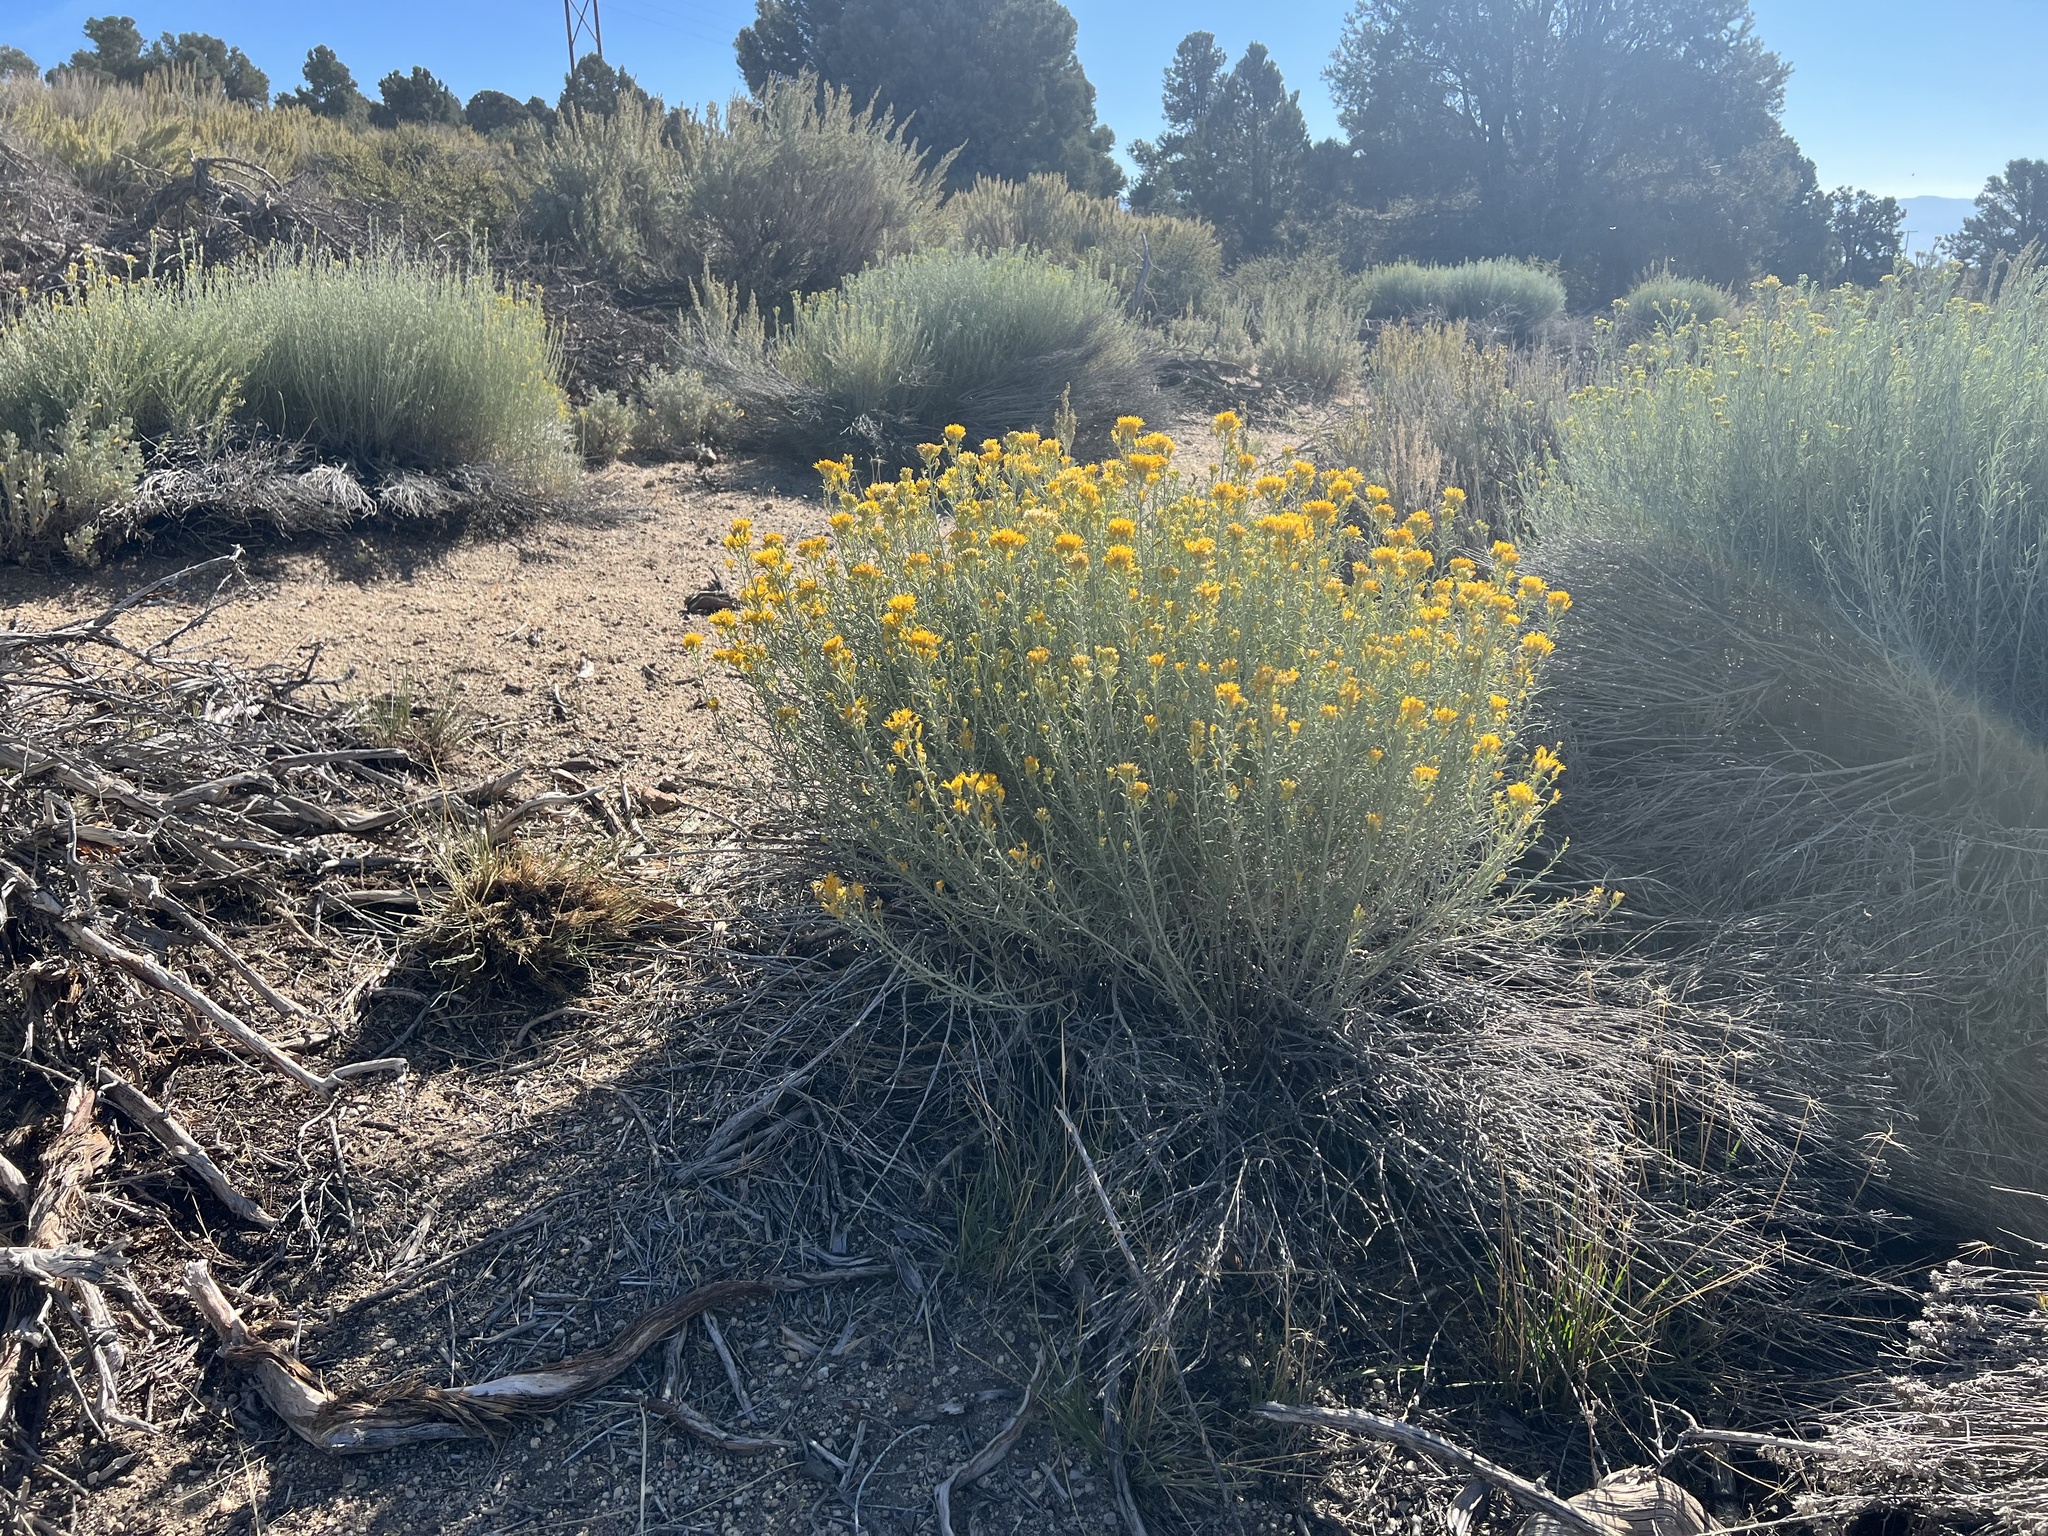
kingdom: Plantae
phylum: Tracheophyta
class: Magnoliopsida
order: Asterales
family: Asteraceae
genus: Ericameria
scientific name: Ericameria nauseosa
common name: Rubber rabbitbrush
